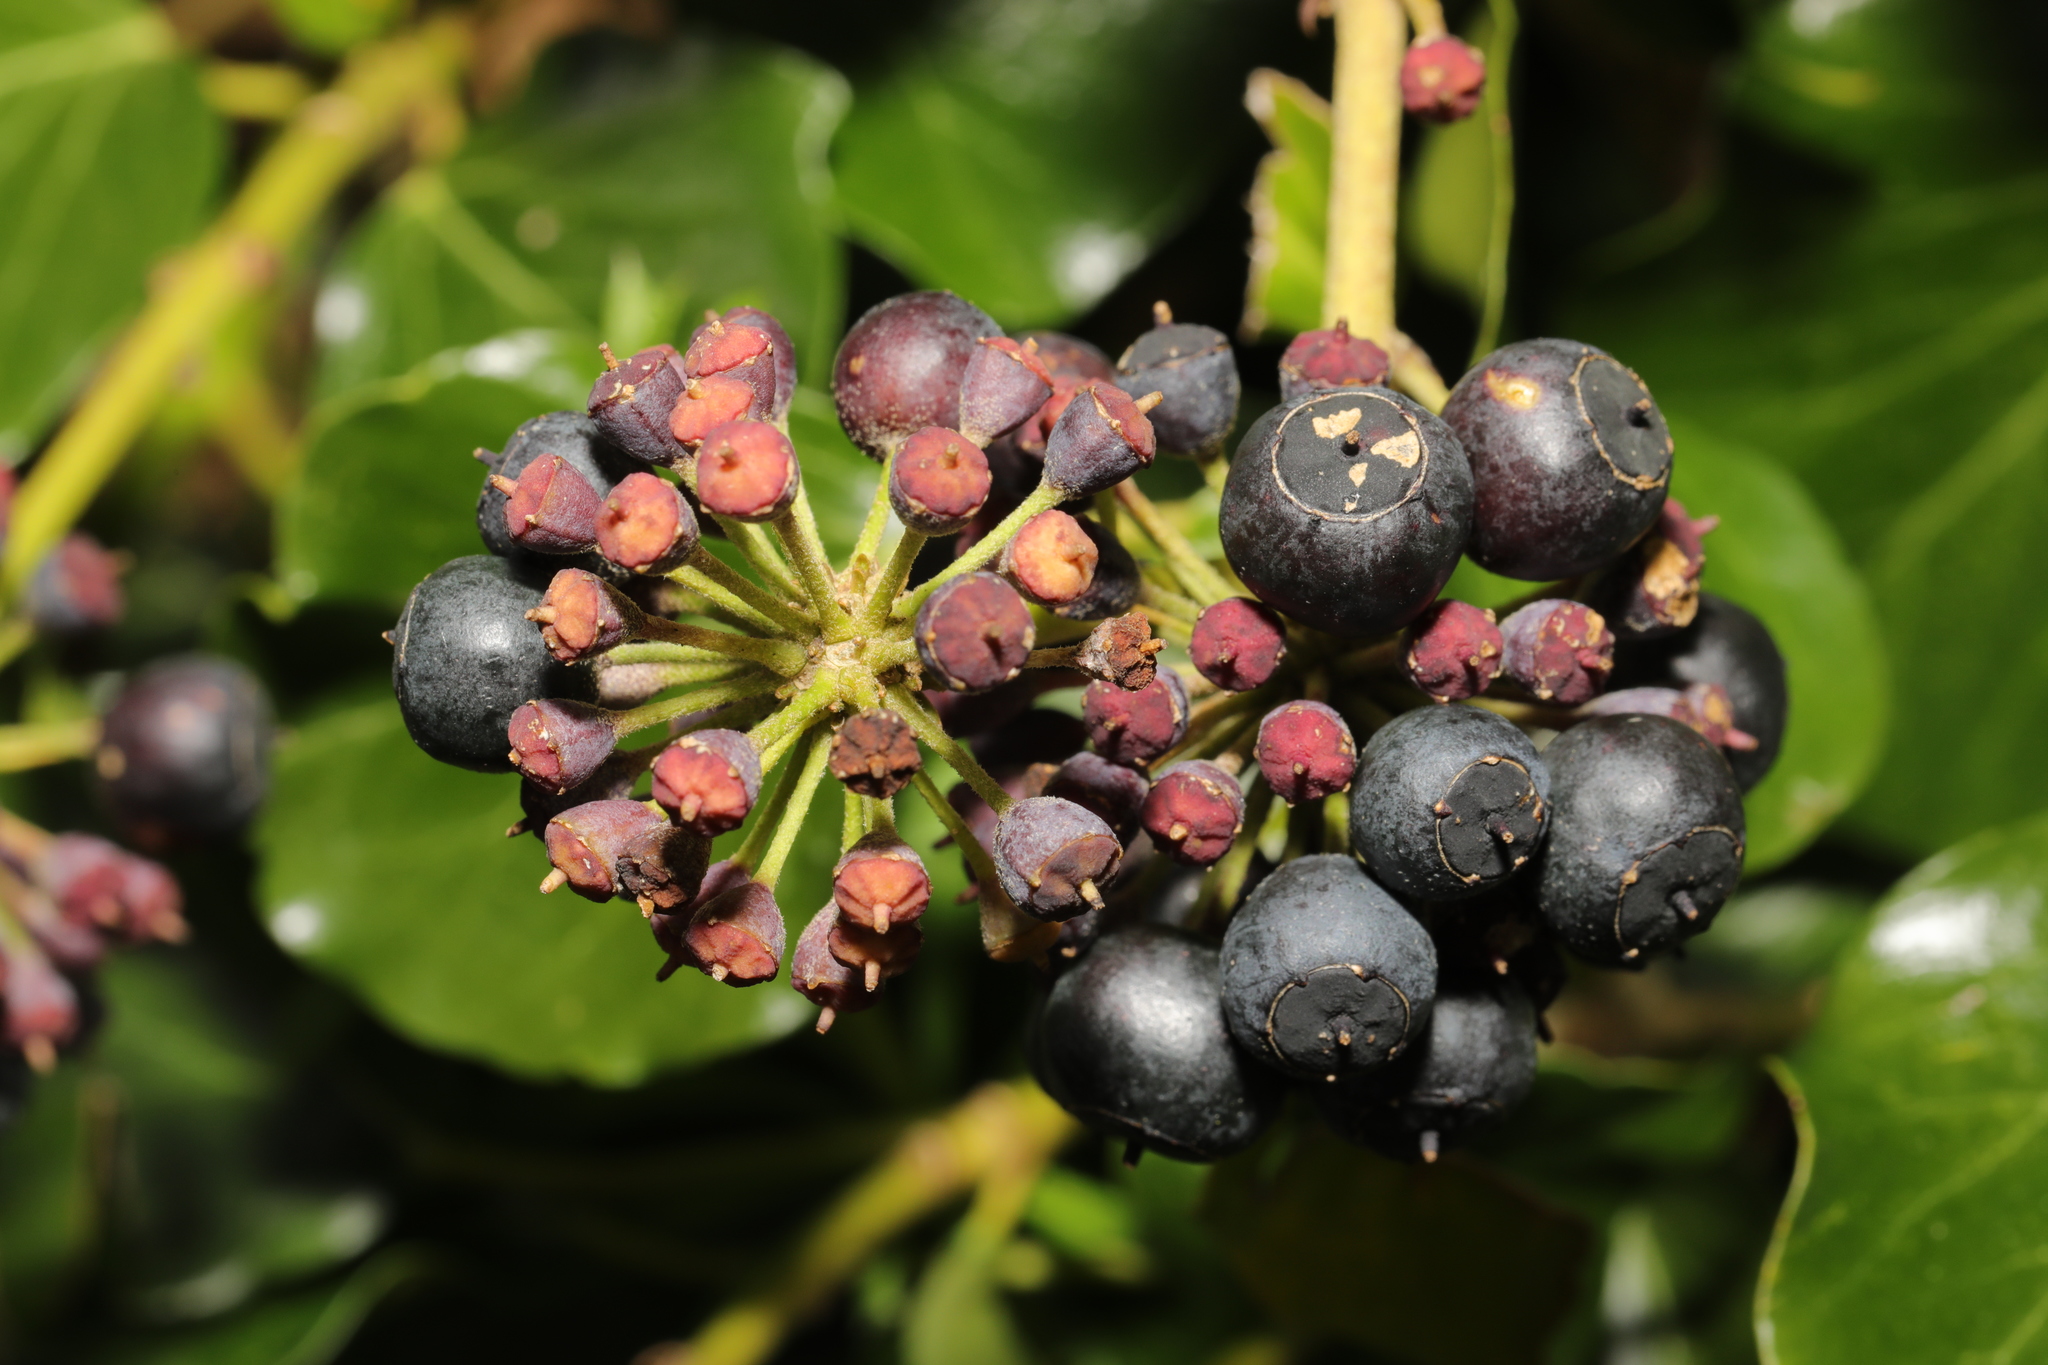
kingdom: Plantae
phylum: Tracheophyta
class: Magnoliopsida
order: Apiales
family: Araliaceae
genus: Hedera
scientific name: Hedera helix
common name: Ivy
